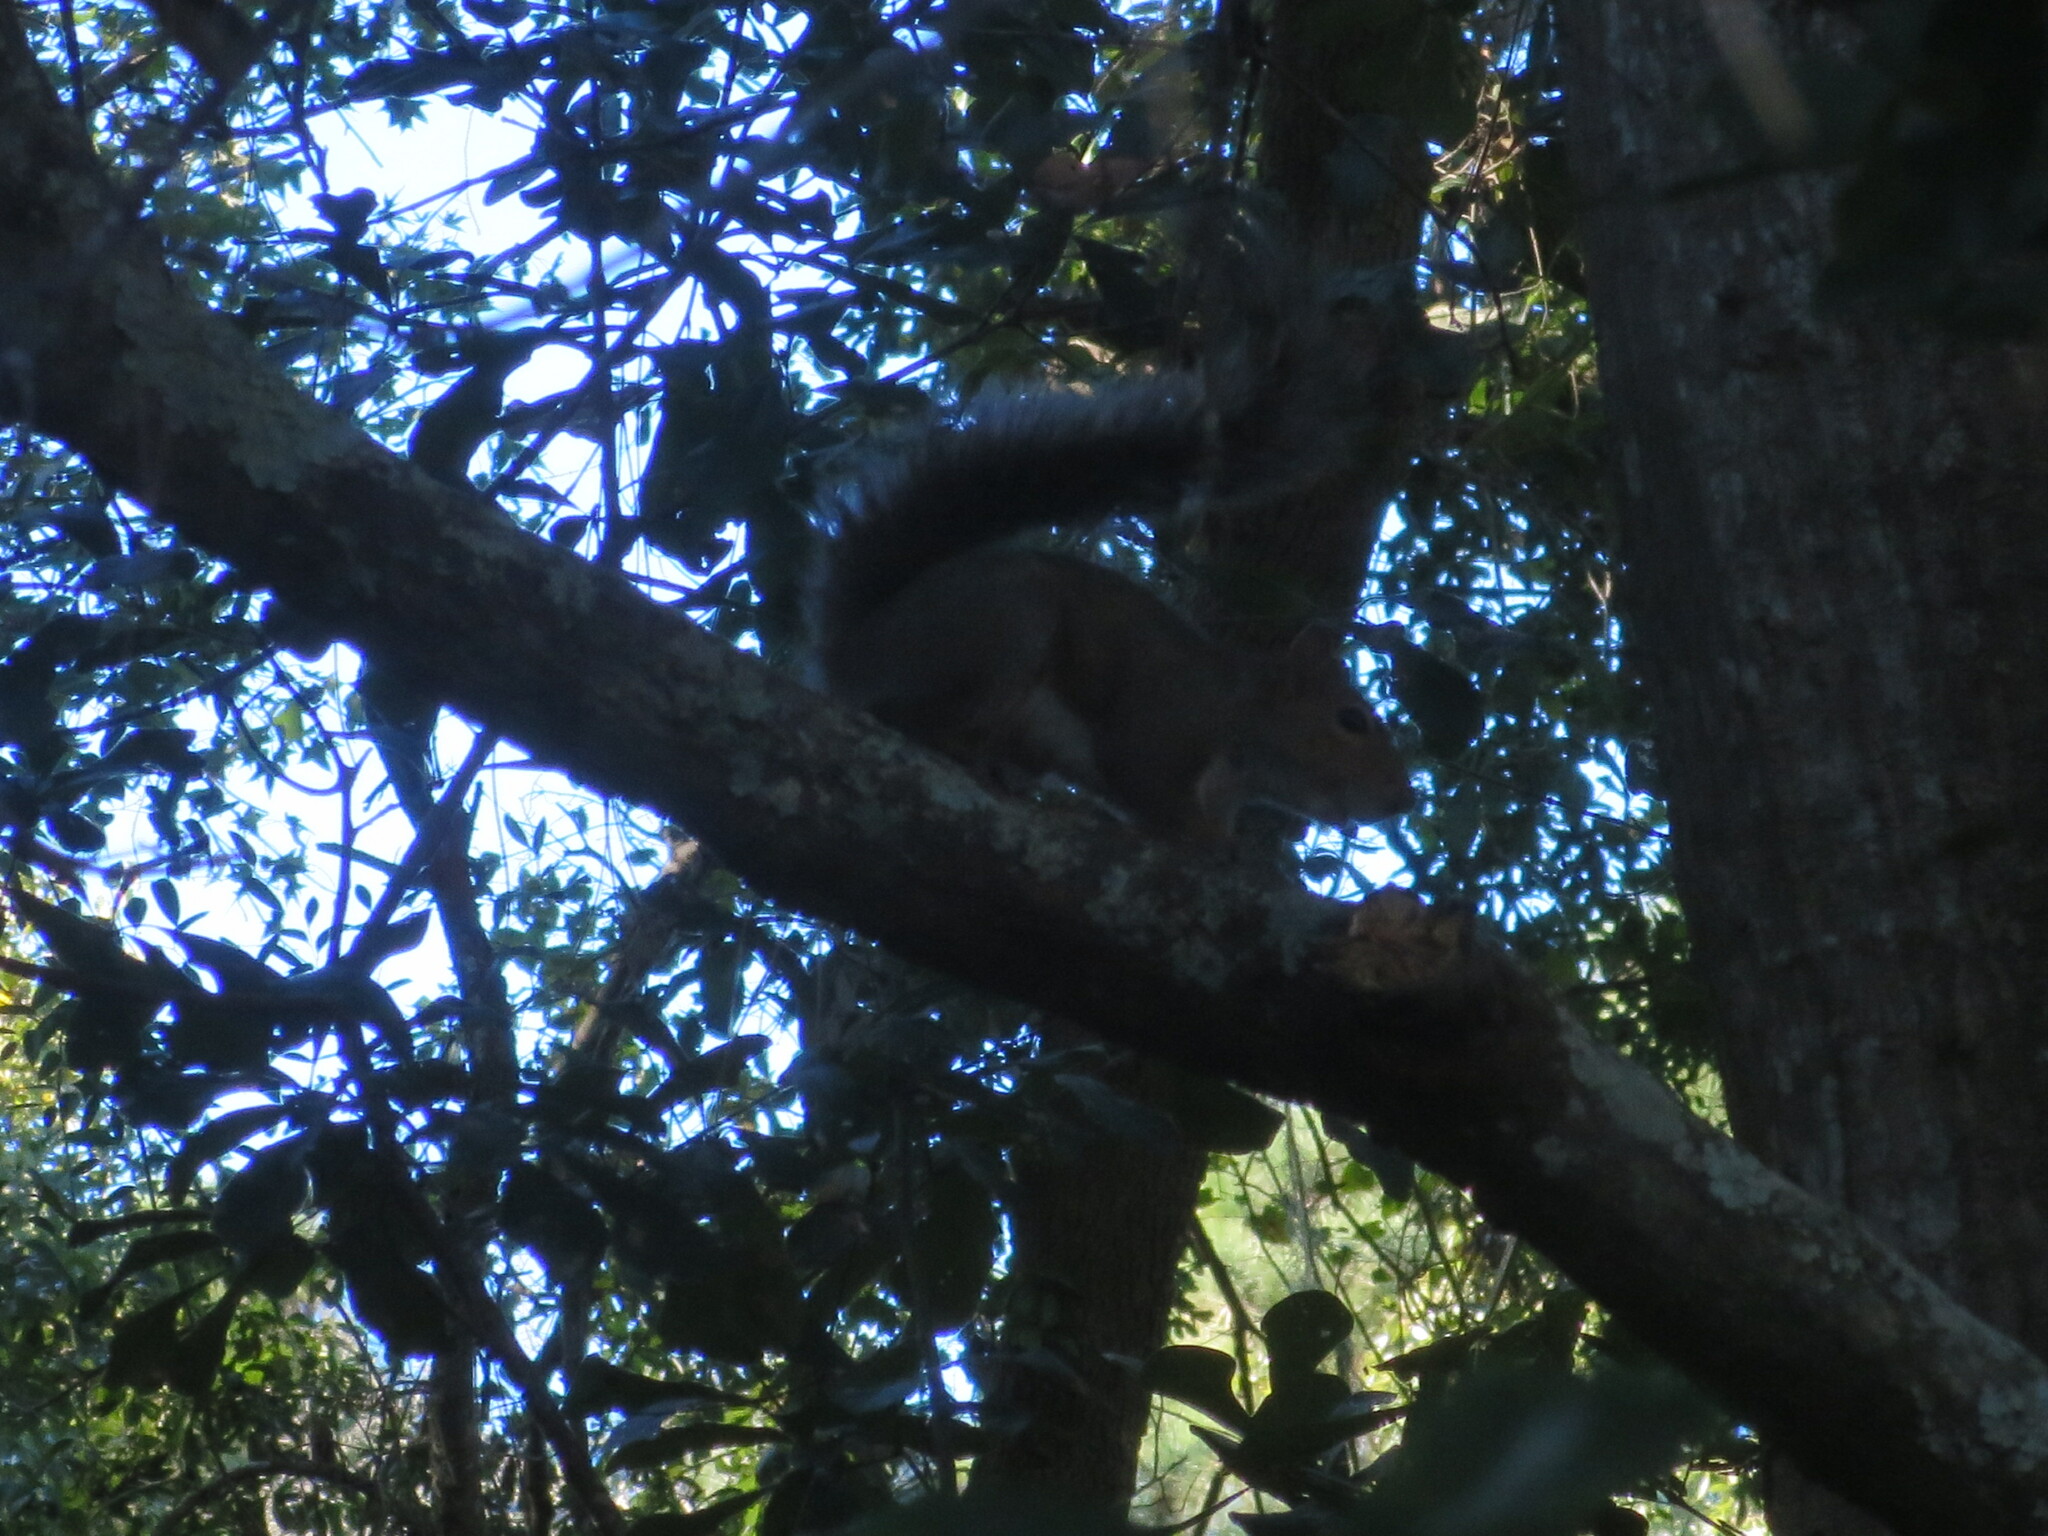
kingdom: Animalia
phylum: Chordata
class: Mammalia
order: Rodentia
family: Sciuridae
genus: Sciurus
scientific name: Sciurus carolinensis
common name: Eastern gray squirrel
